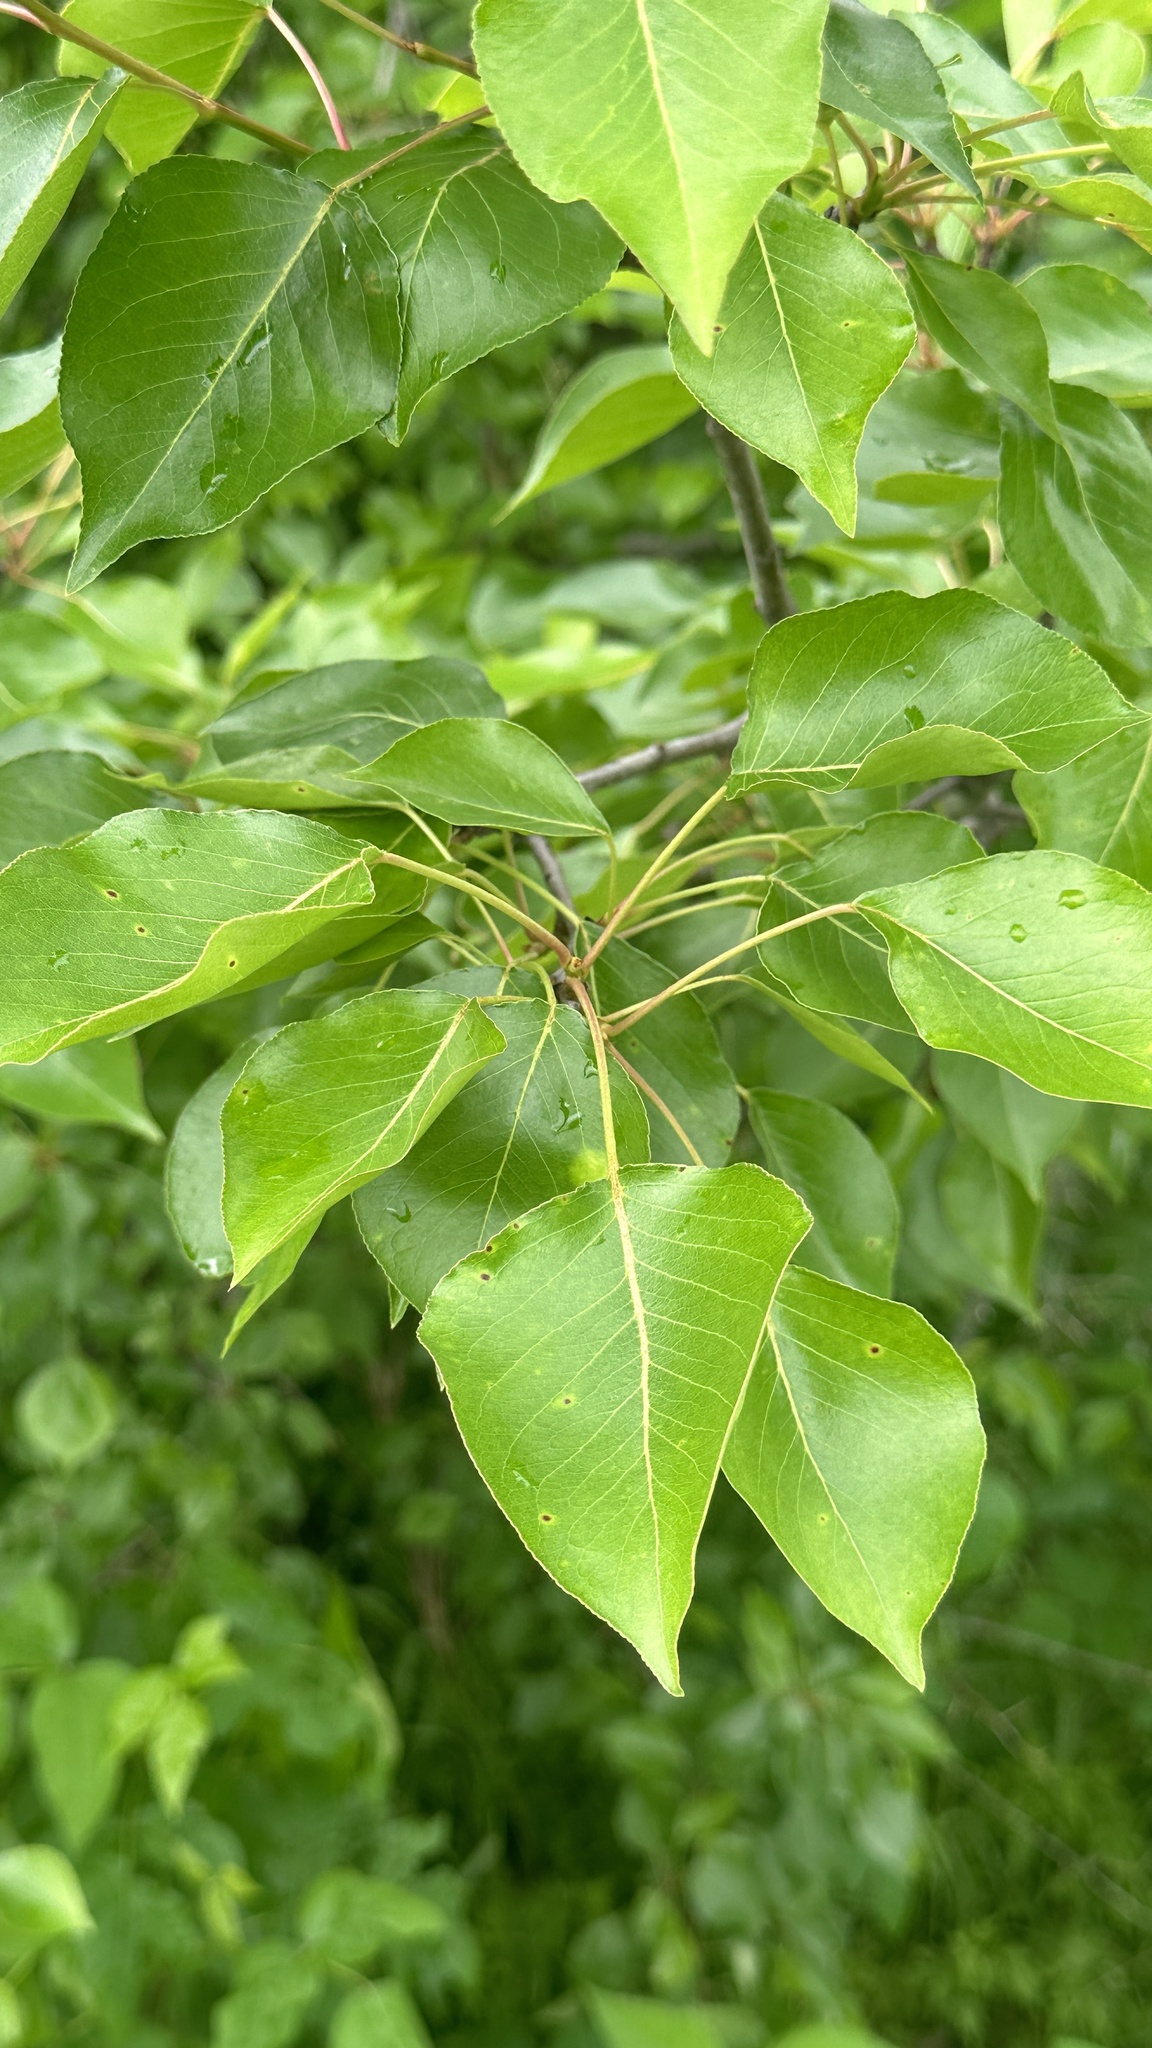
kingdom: Plantae
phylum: Tracheophyta
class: Magnoliopsida
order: Rosales
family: Rosaceae
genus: Pyrus
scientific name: Pyrus calleryana
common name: Callery pear
